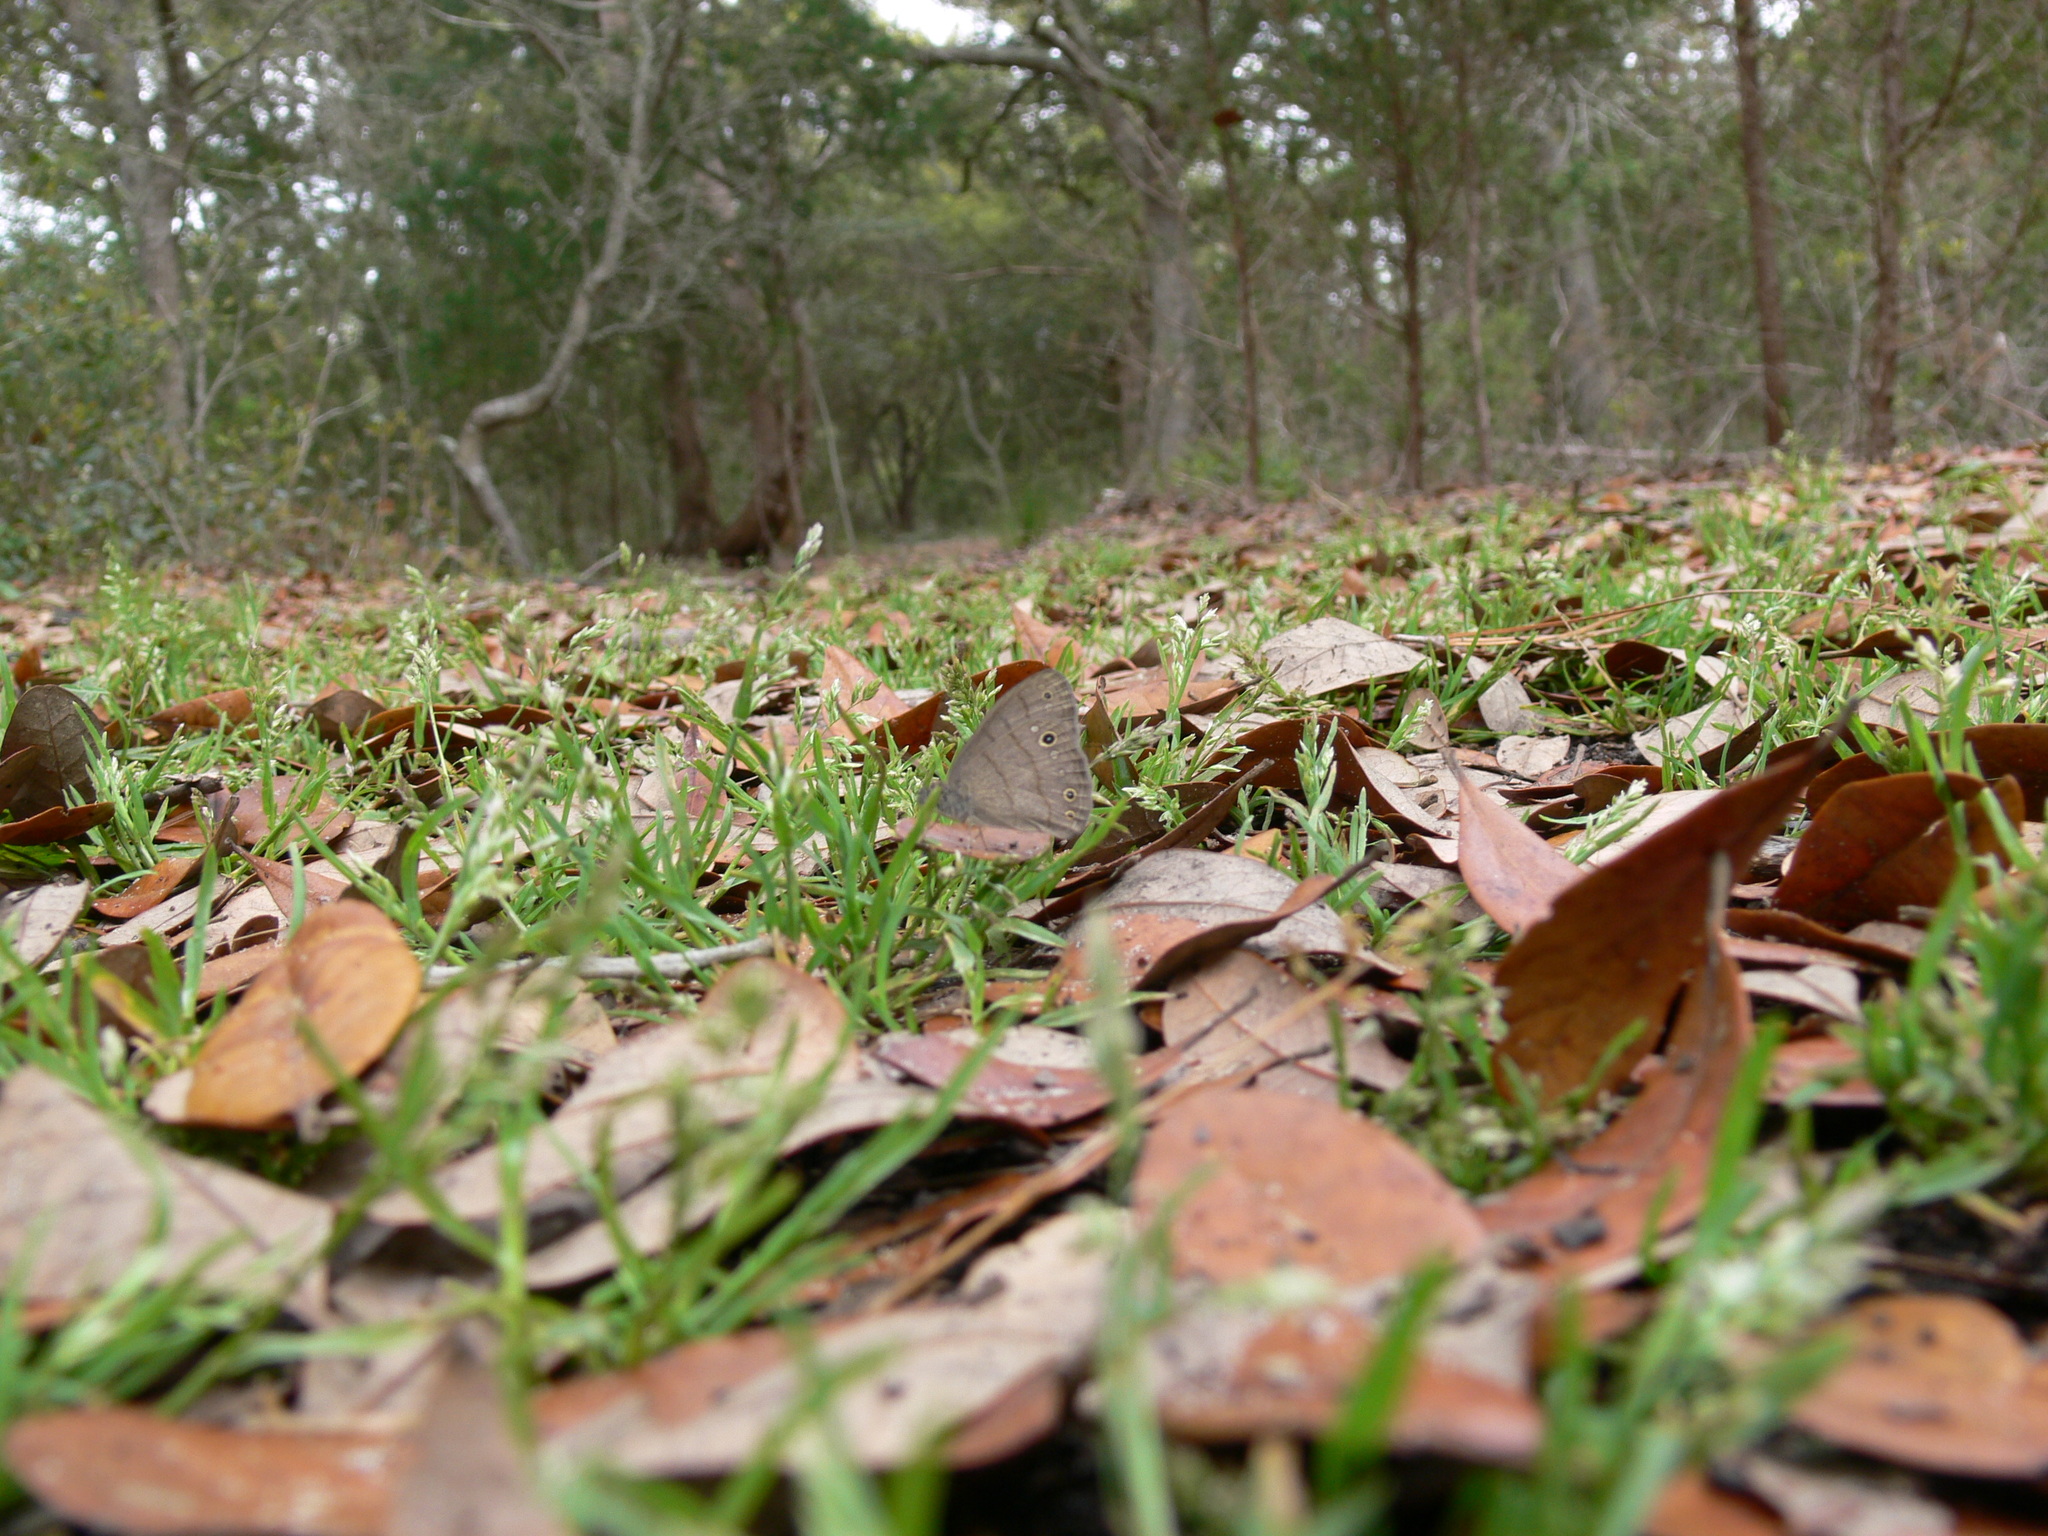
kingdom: Animalia
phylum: Arthropoda
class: Insecta
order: Lepidoptera
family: Nymphalidae
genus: Hermeuptychia
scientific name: Hermeuptychia hermes
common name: Hermes satyr
